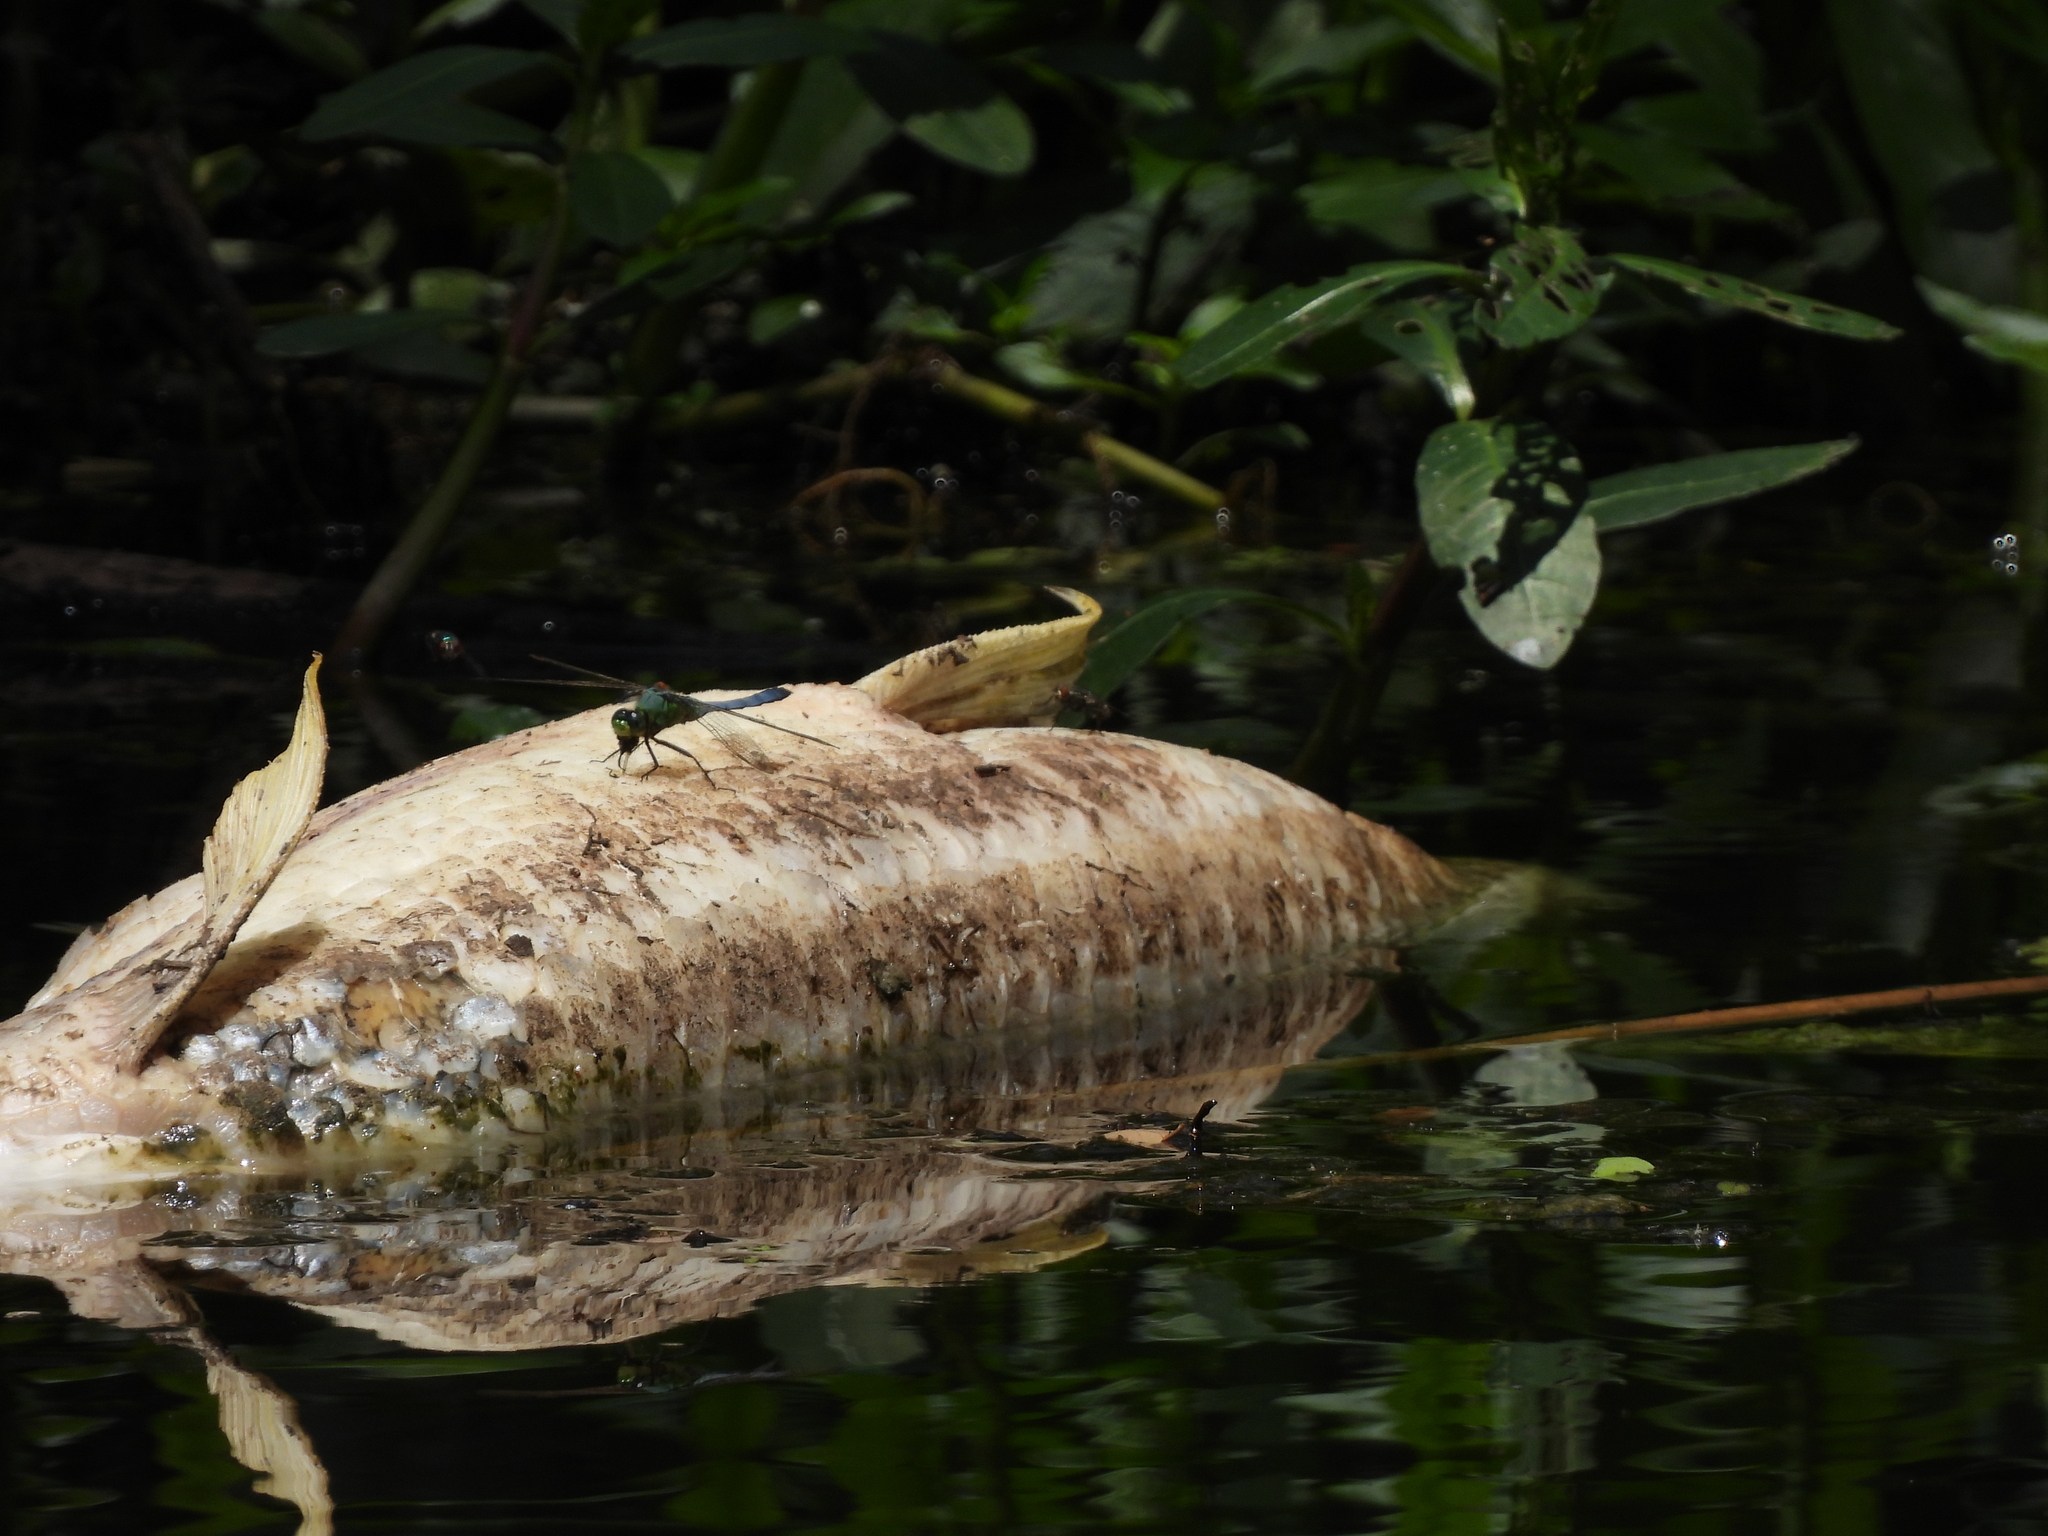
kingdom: Animalia
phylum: Arthropoda
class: Insecta
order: Odonata
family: Libellulidae
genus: Erythemis
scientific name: Erythemis simplicicollis
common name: Eastern pondhawk
